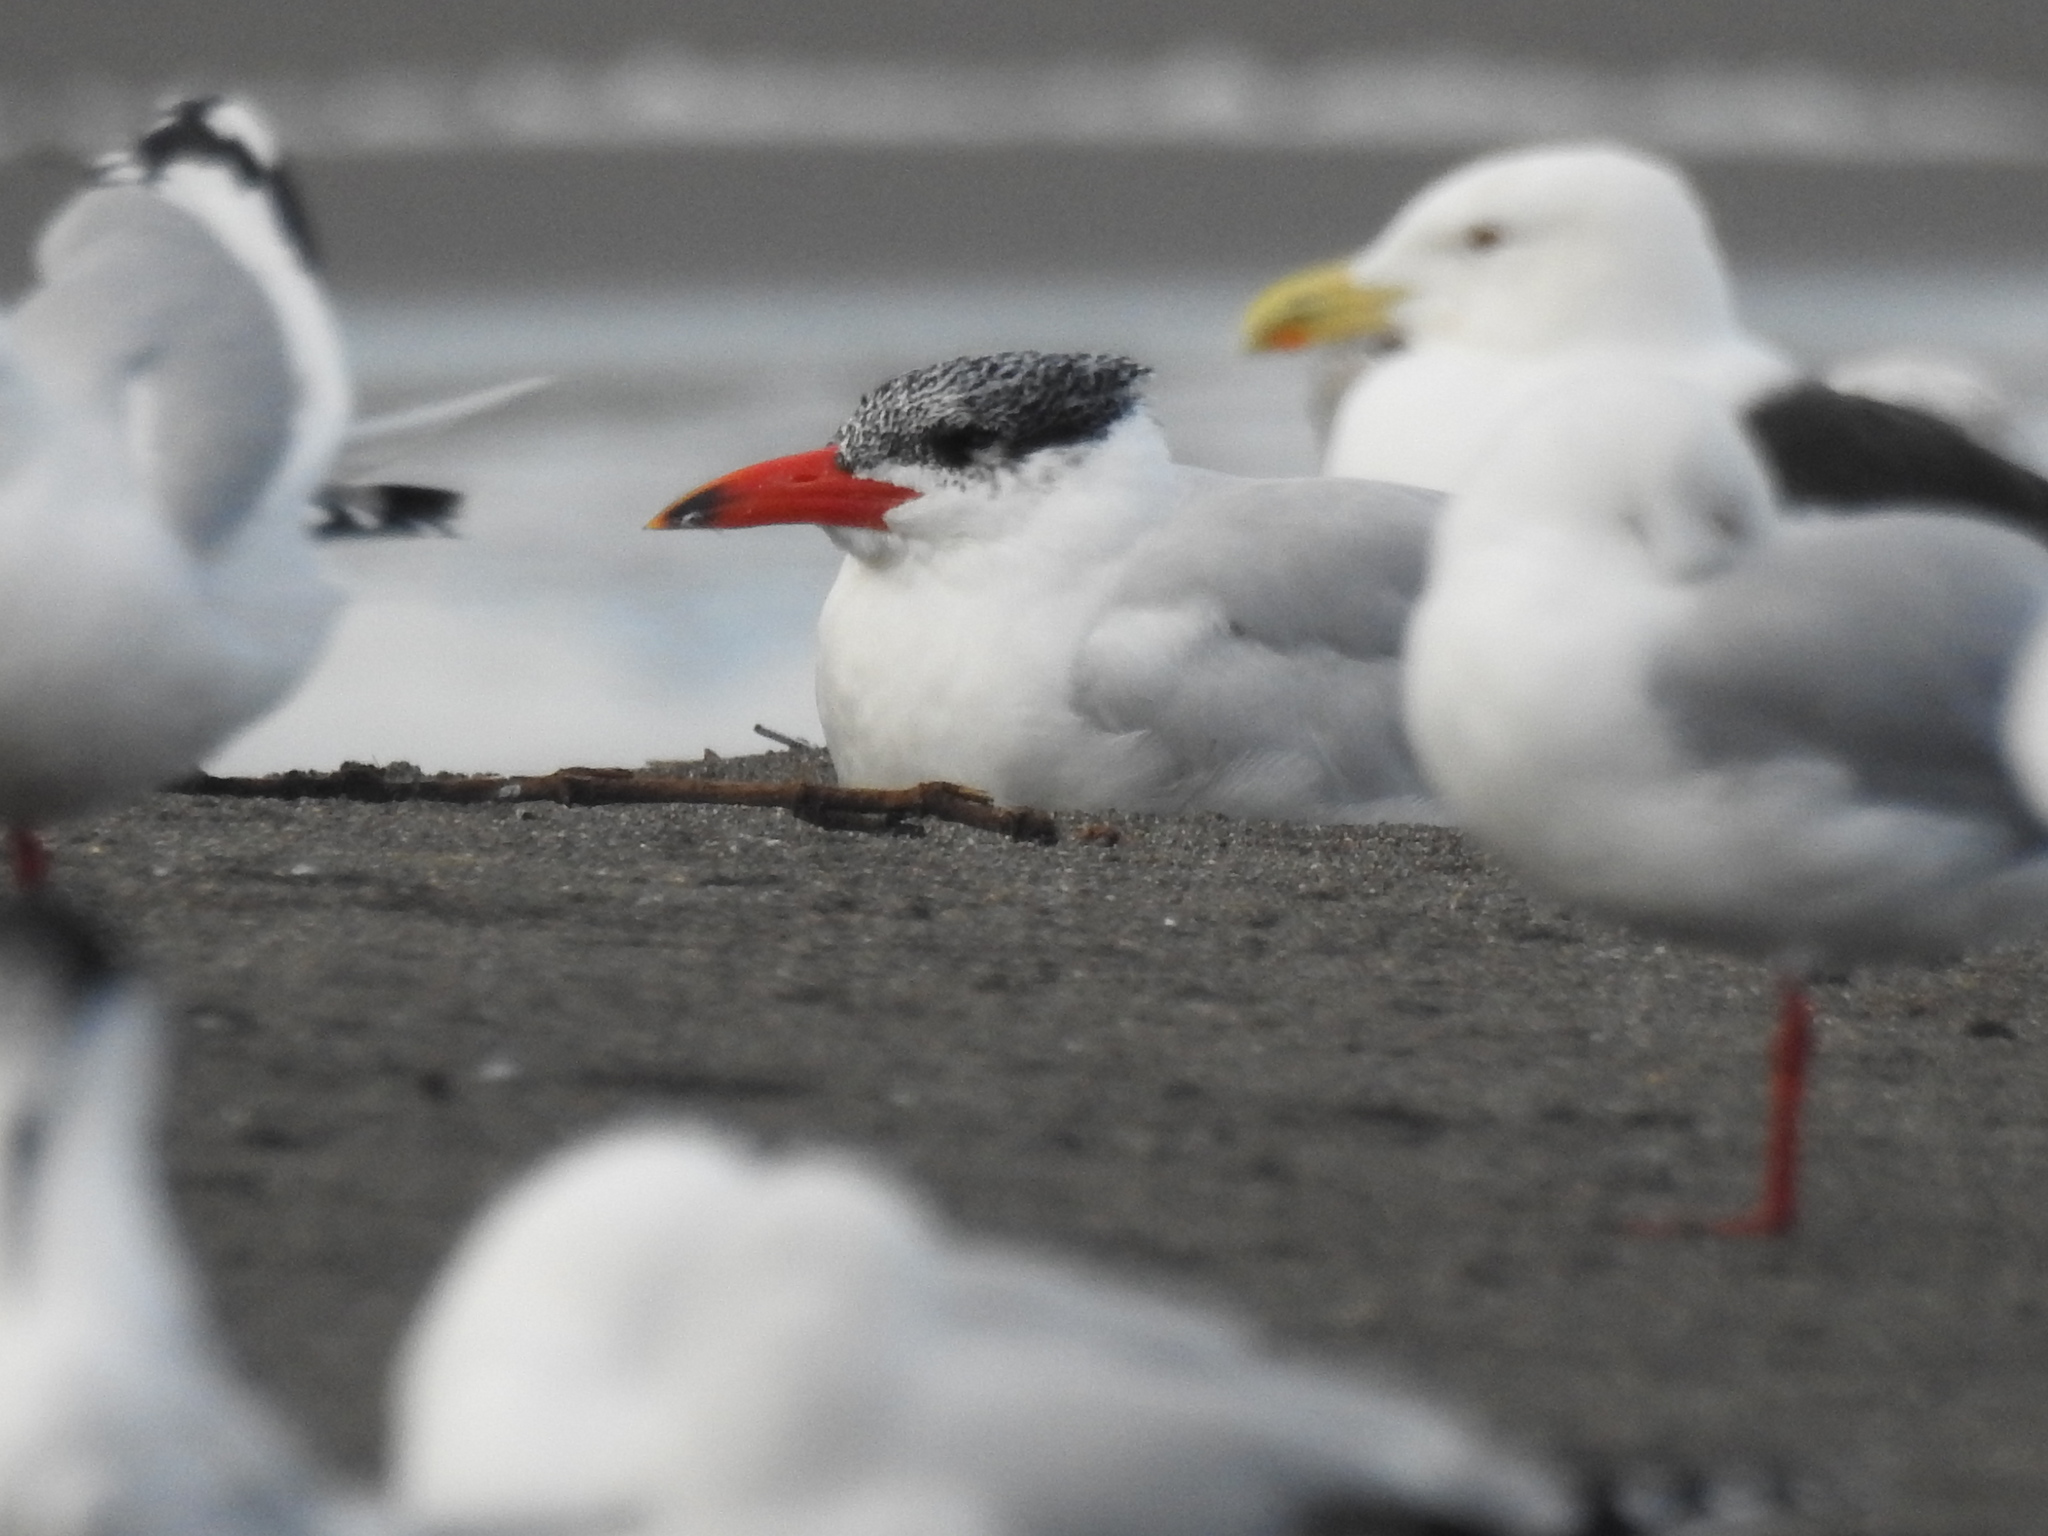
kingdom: Animalia
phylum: Chordata
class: Aves
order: Charadriiformes
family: Laridae
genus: Hydroprogne
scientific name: Hydroprogne caspia
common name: Caspian tern
